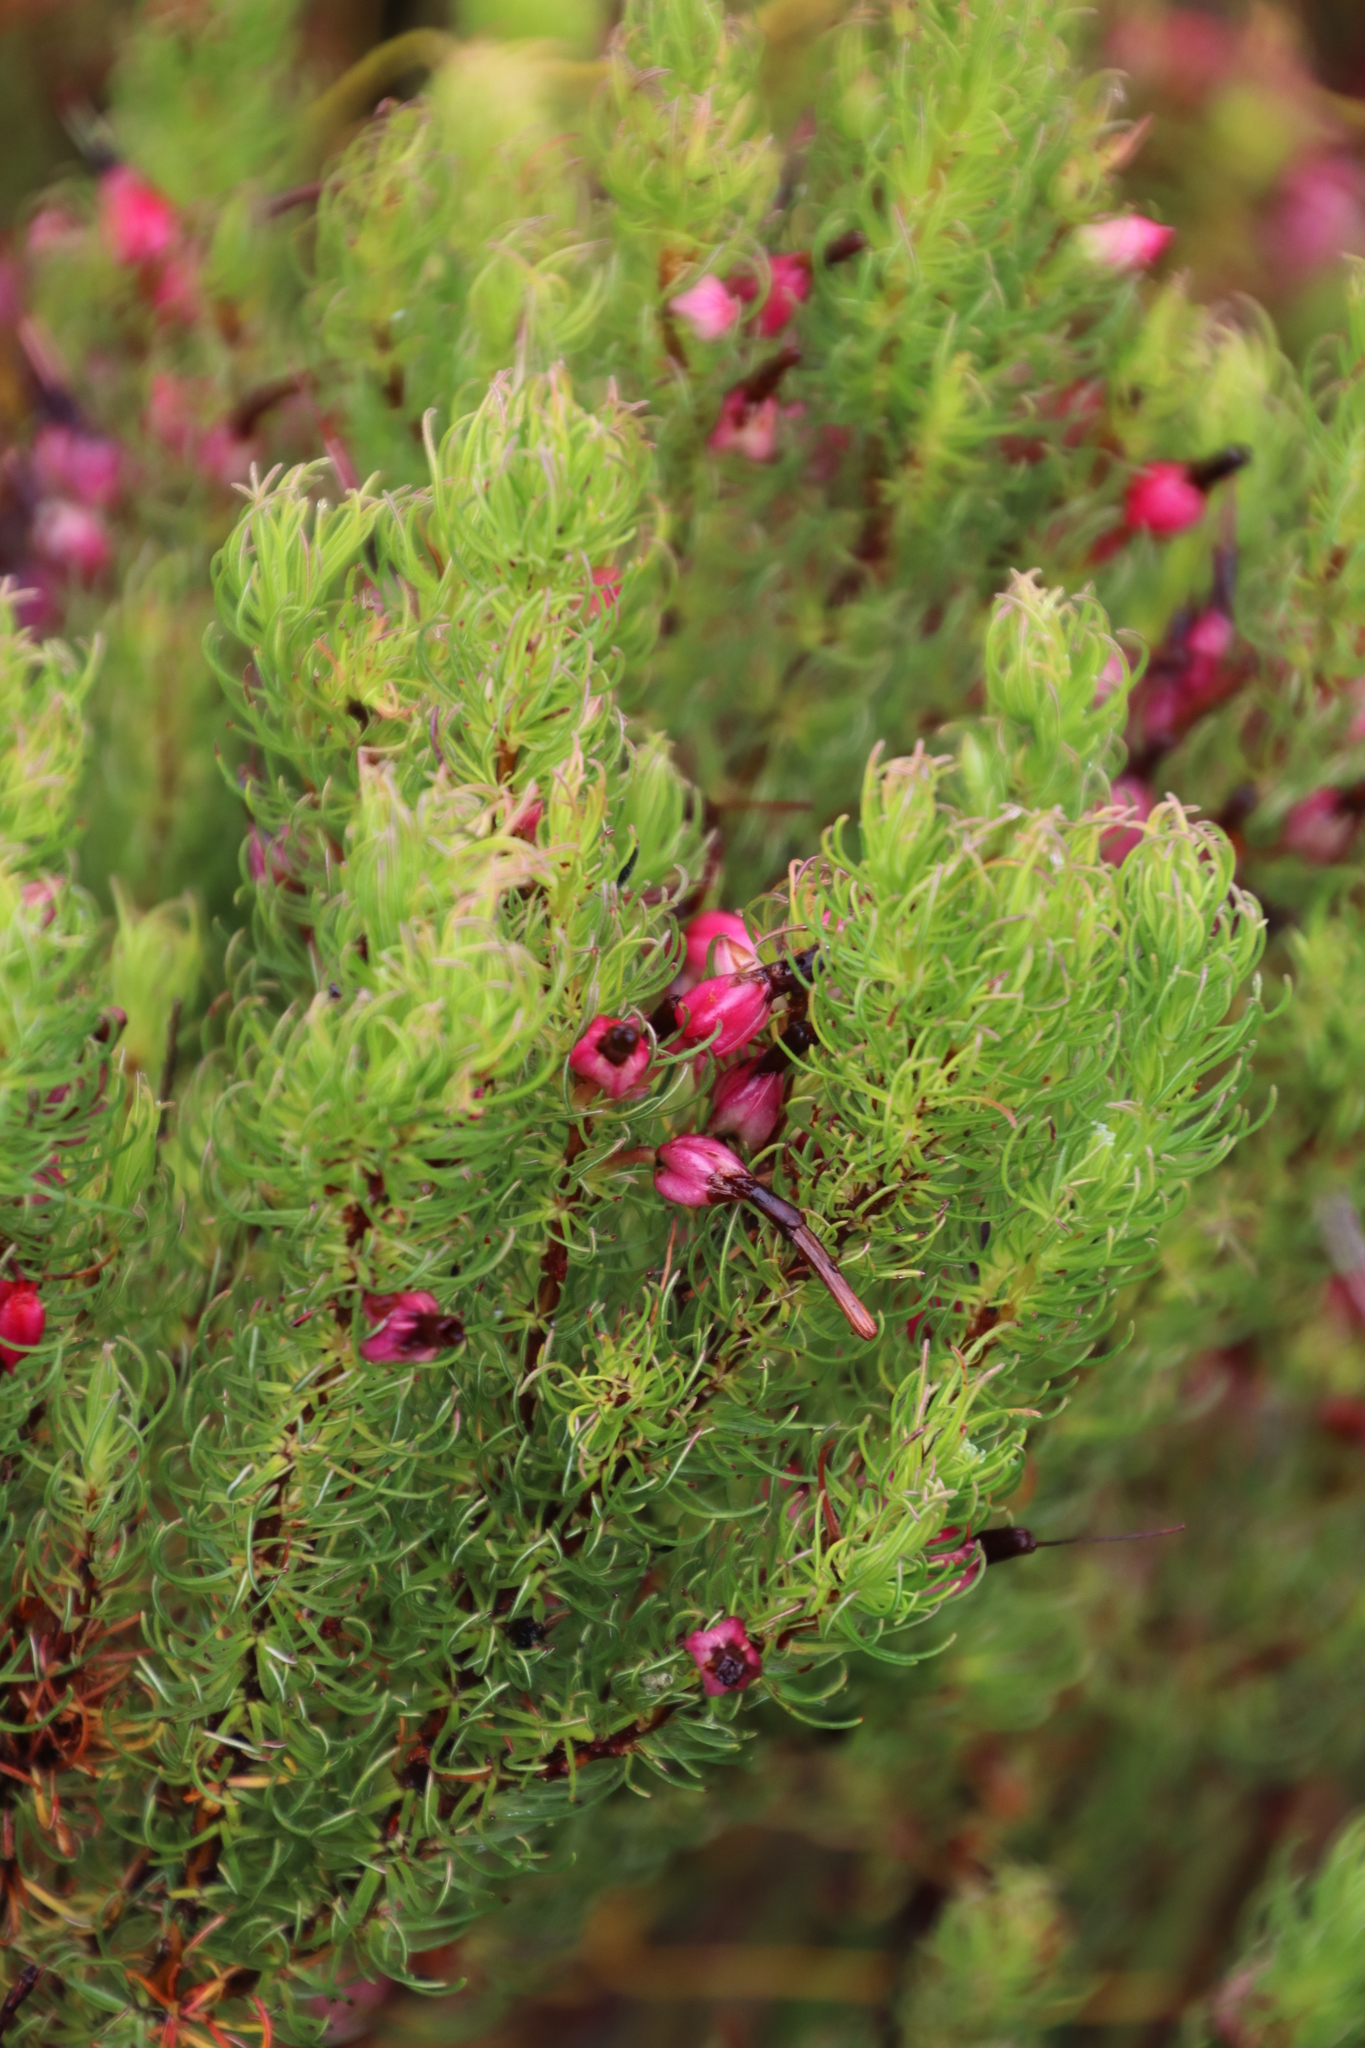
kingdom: Plantae
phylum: Tracheophyta
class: Magnoliopsida
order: Ericales
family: Ericaceae
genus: Erica
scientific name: Erica plukenetii
